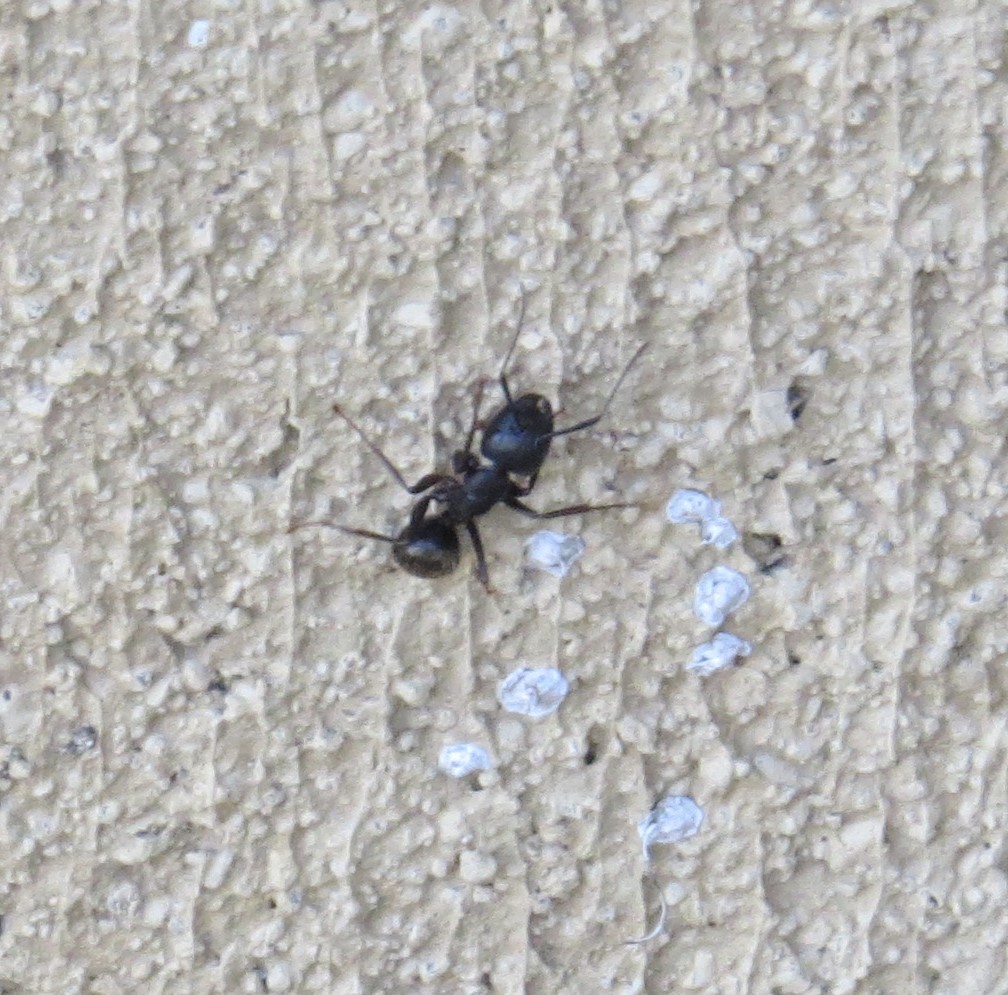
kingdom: Animalia
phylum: Arthropoda
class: Insecta
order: Hymenoptera
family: Formicidae
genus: Camponotus
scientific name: Camponotus pennsylvanicus
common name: Black carpenter ant
